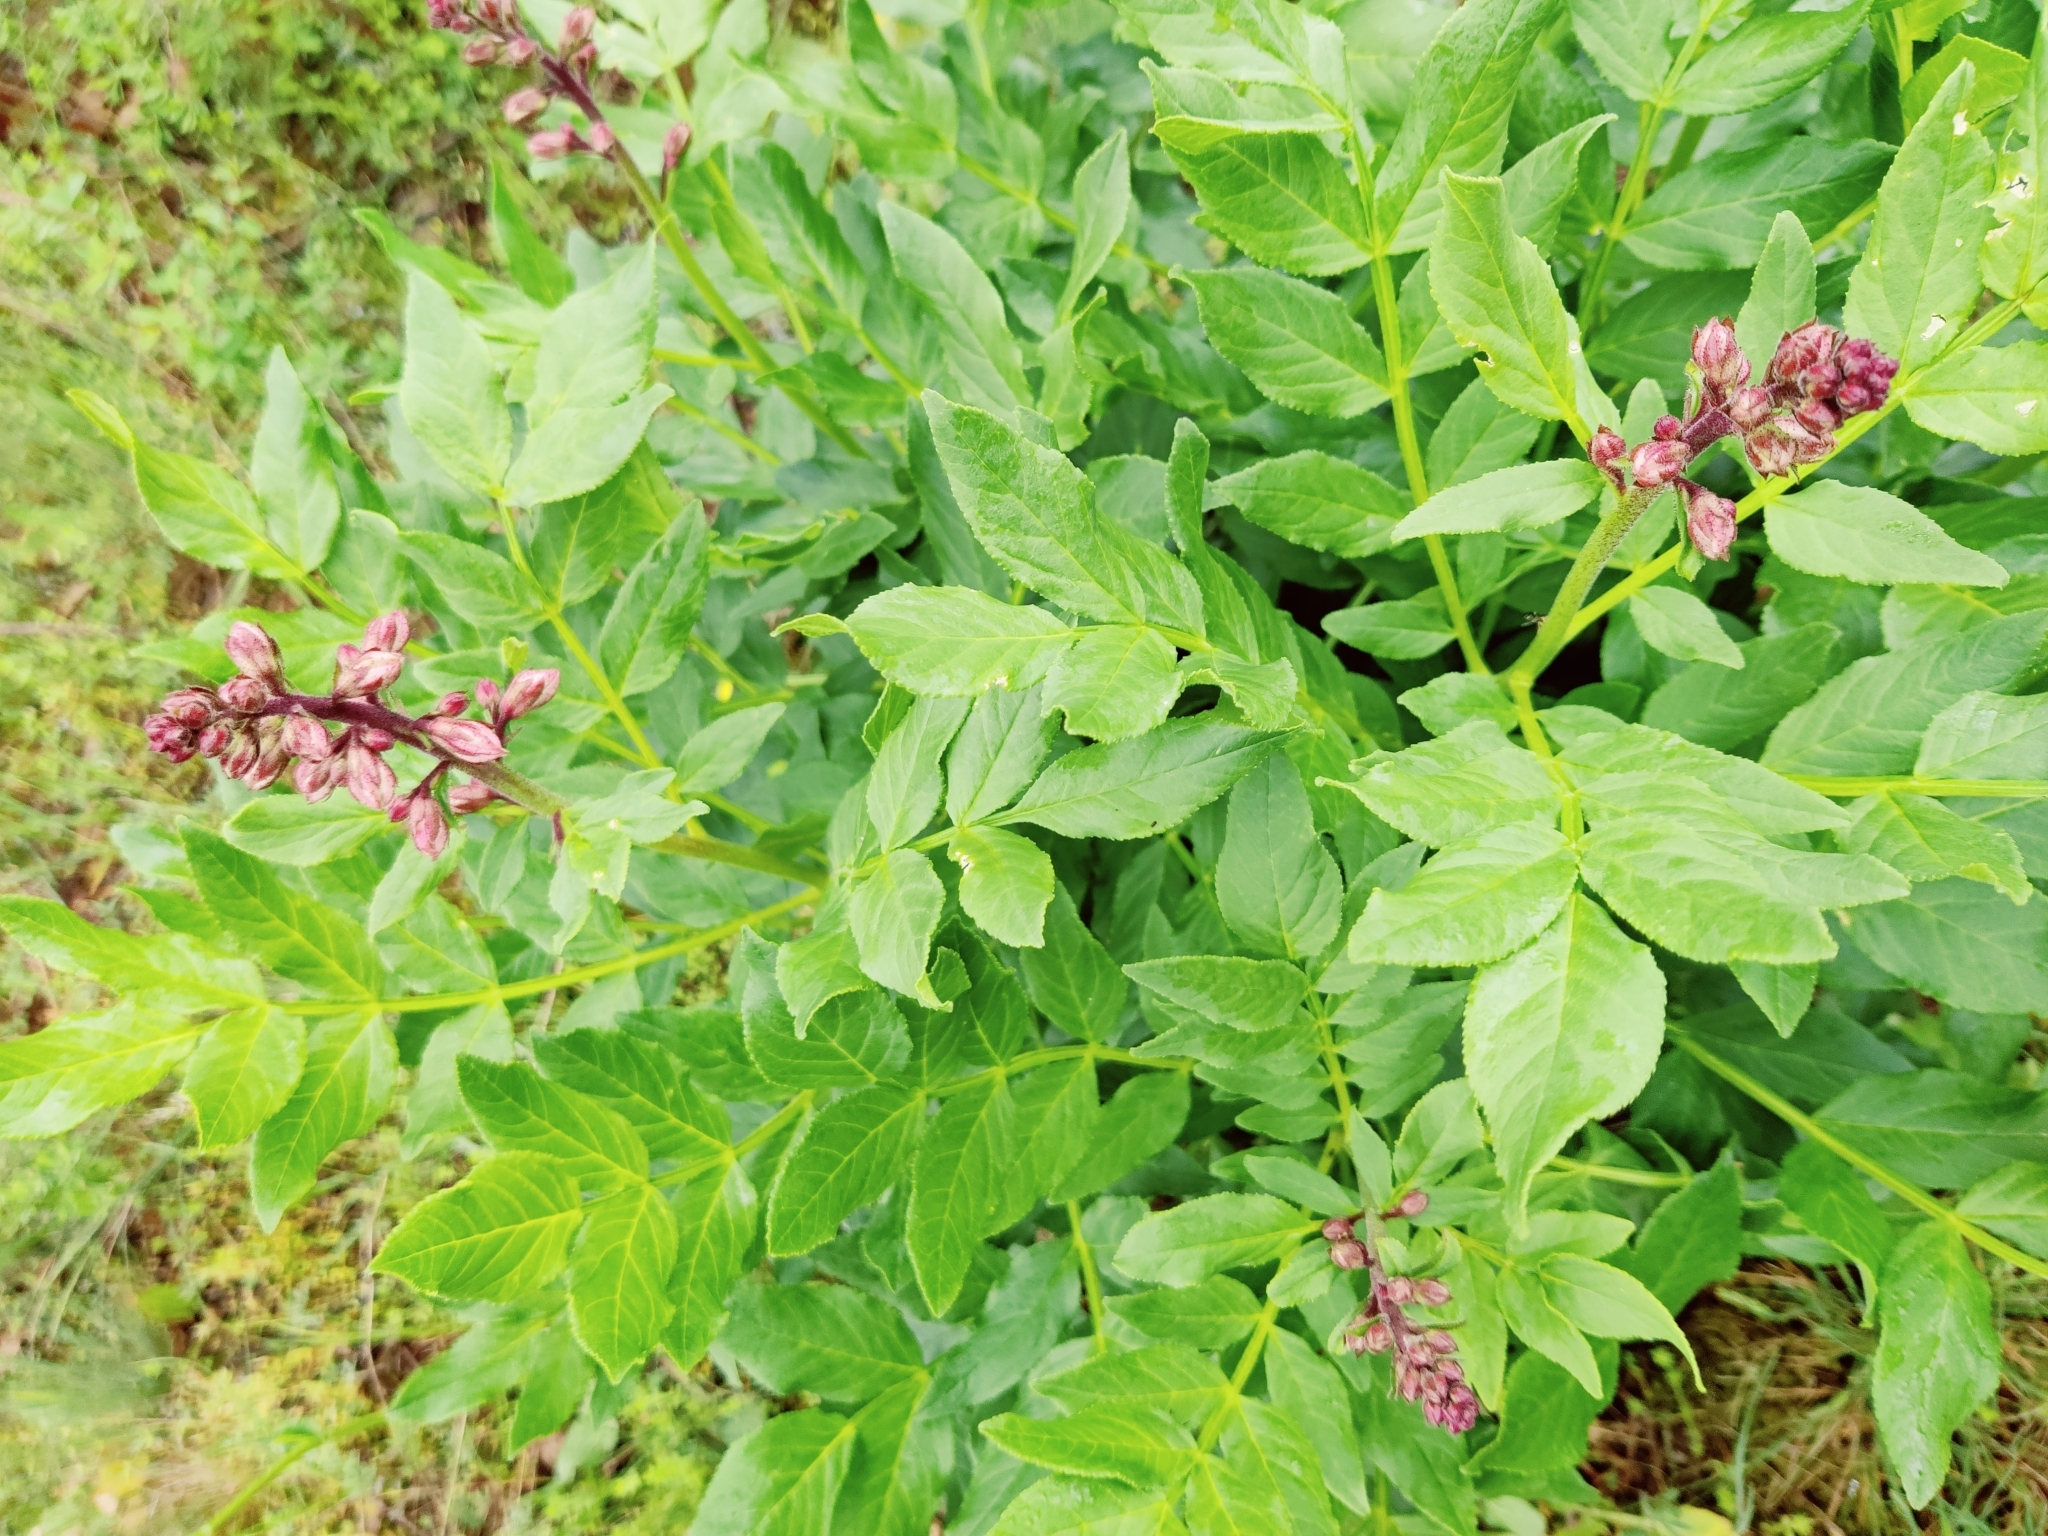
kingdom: Plantae
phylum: Tracheophyta
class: Magnoliopsida
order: Sapindales
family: Rutaceae
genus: Dictamnus
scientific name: Dictamnus albus
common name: Gasplant
